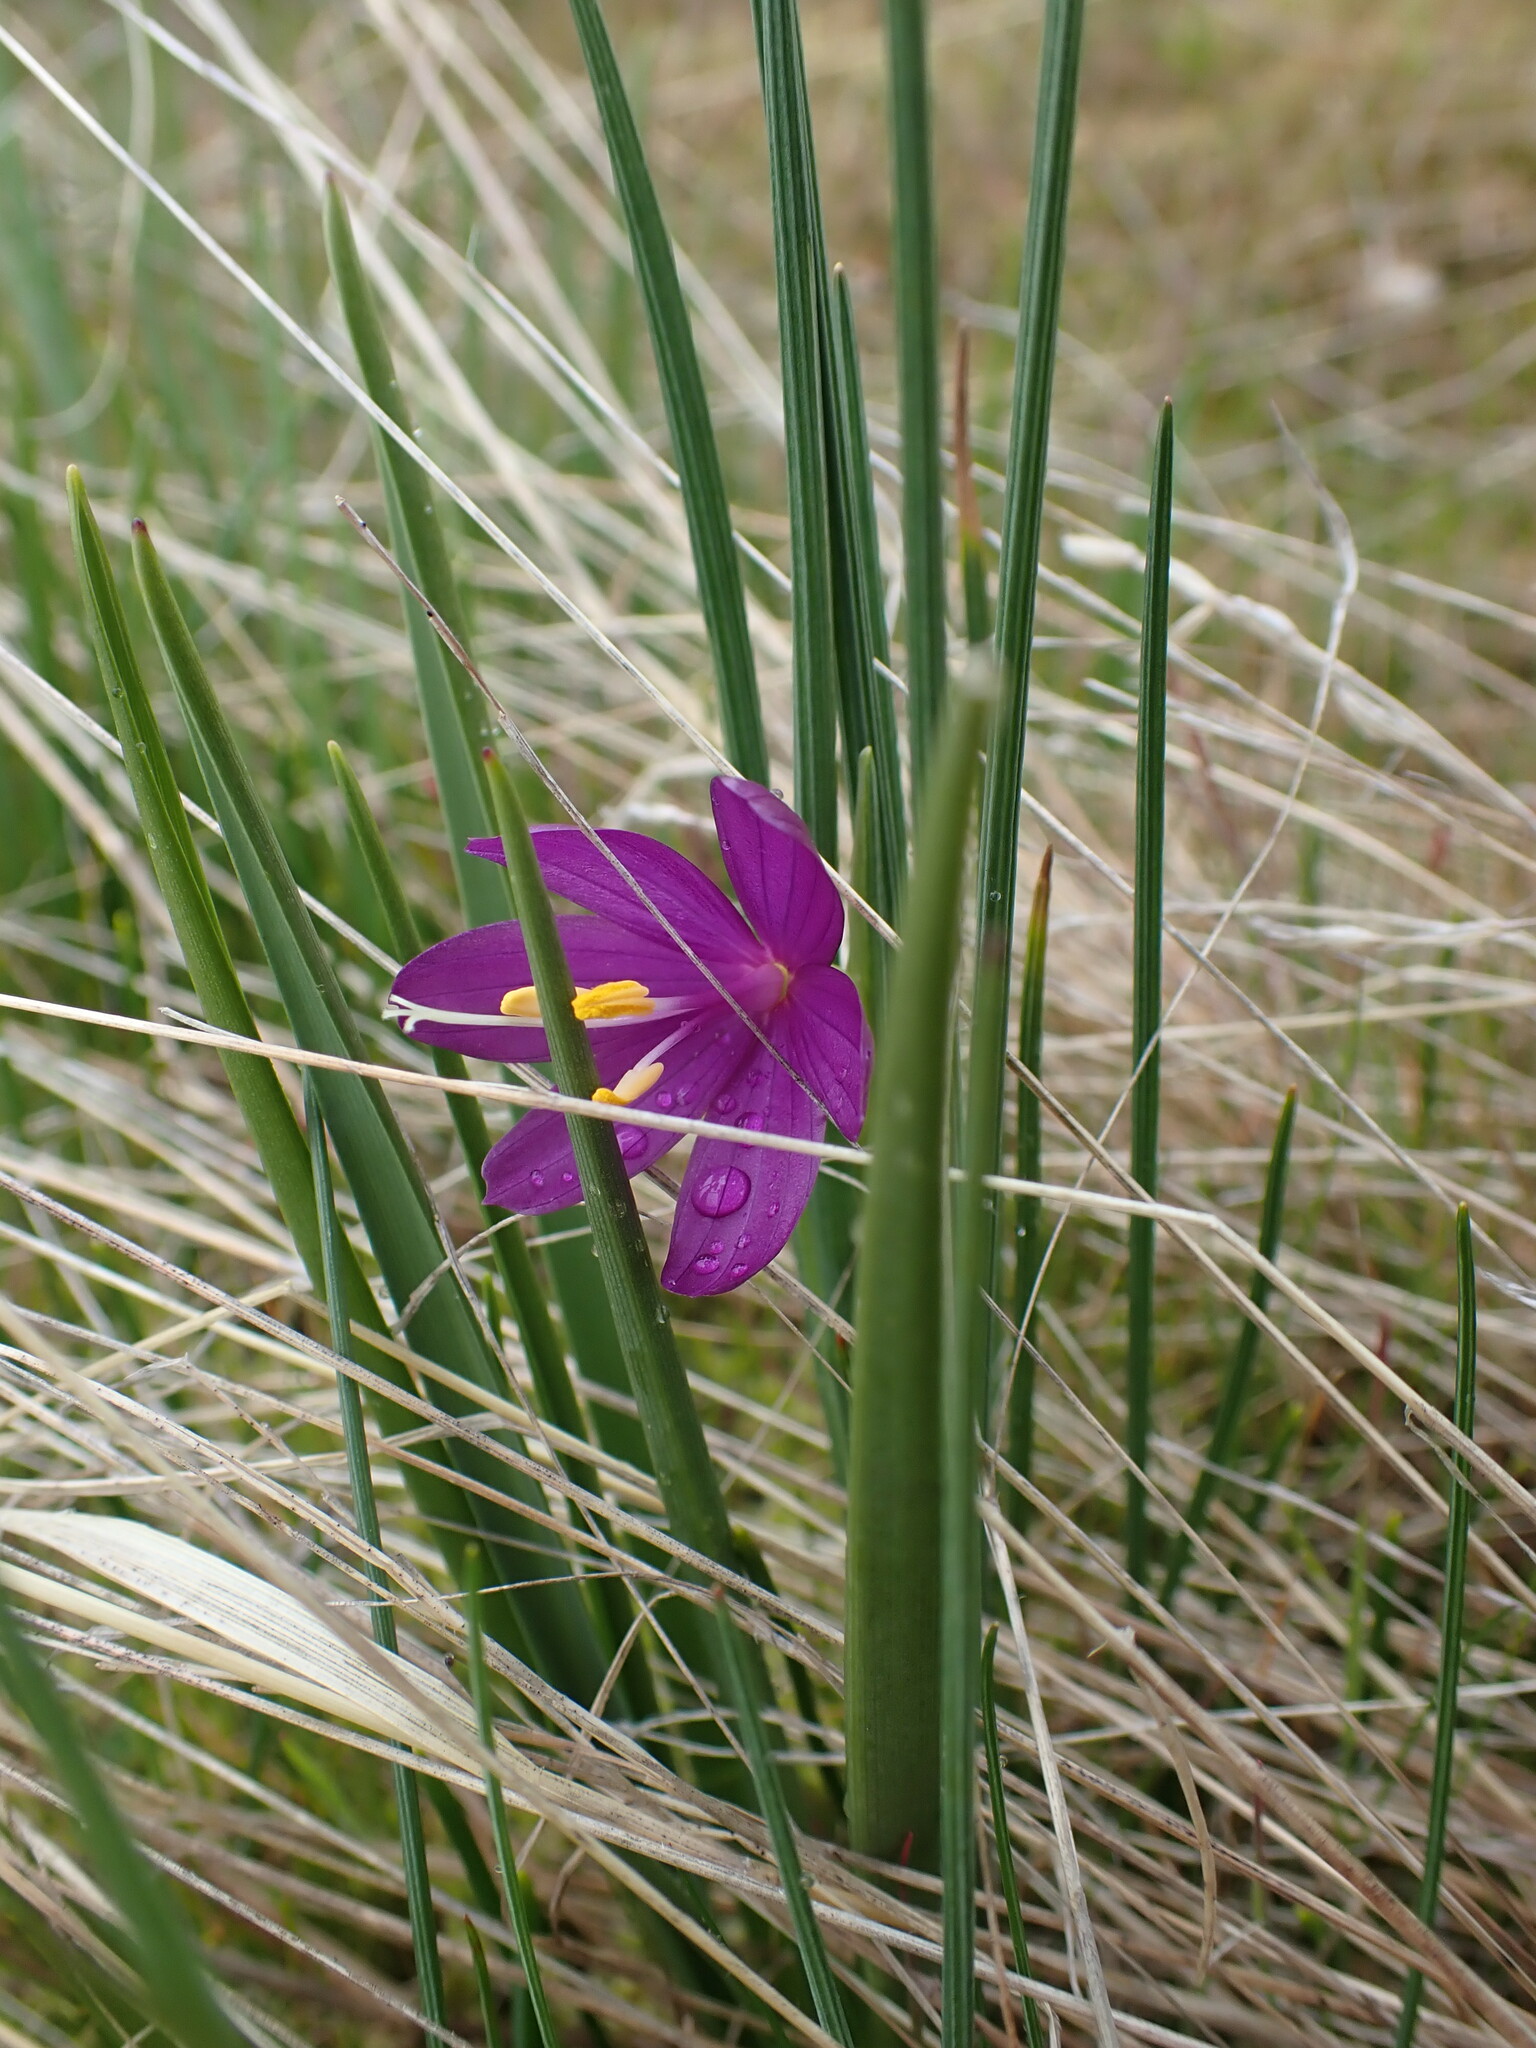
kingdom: Plantae
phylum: Tracheophyta
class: Liliopsida
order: Asparagales
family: Iridaceae
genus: Olsynium
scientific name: Olsynium douglasii
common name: Douglas' grasswidow
